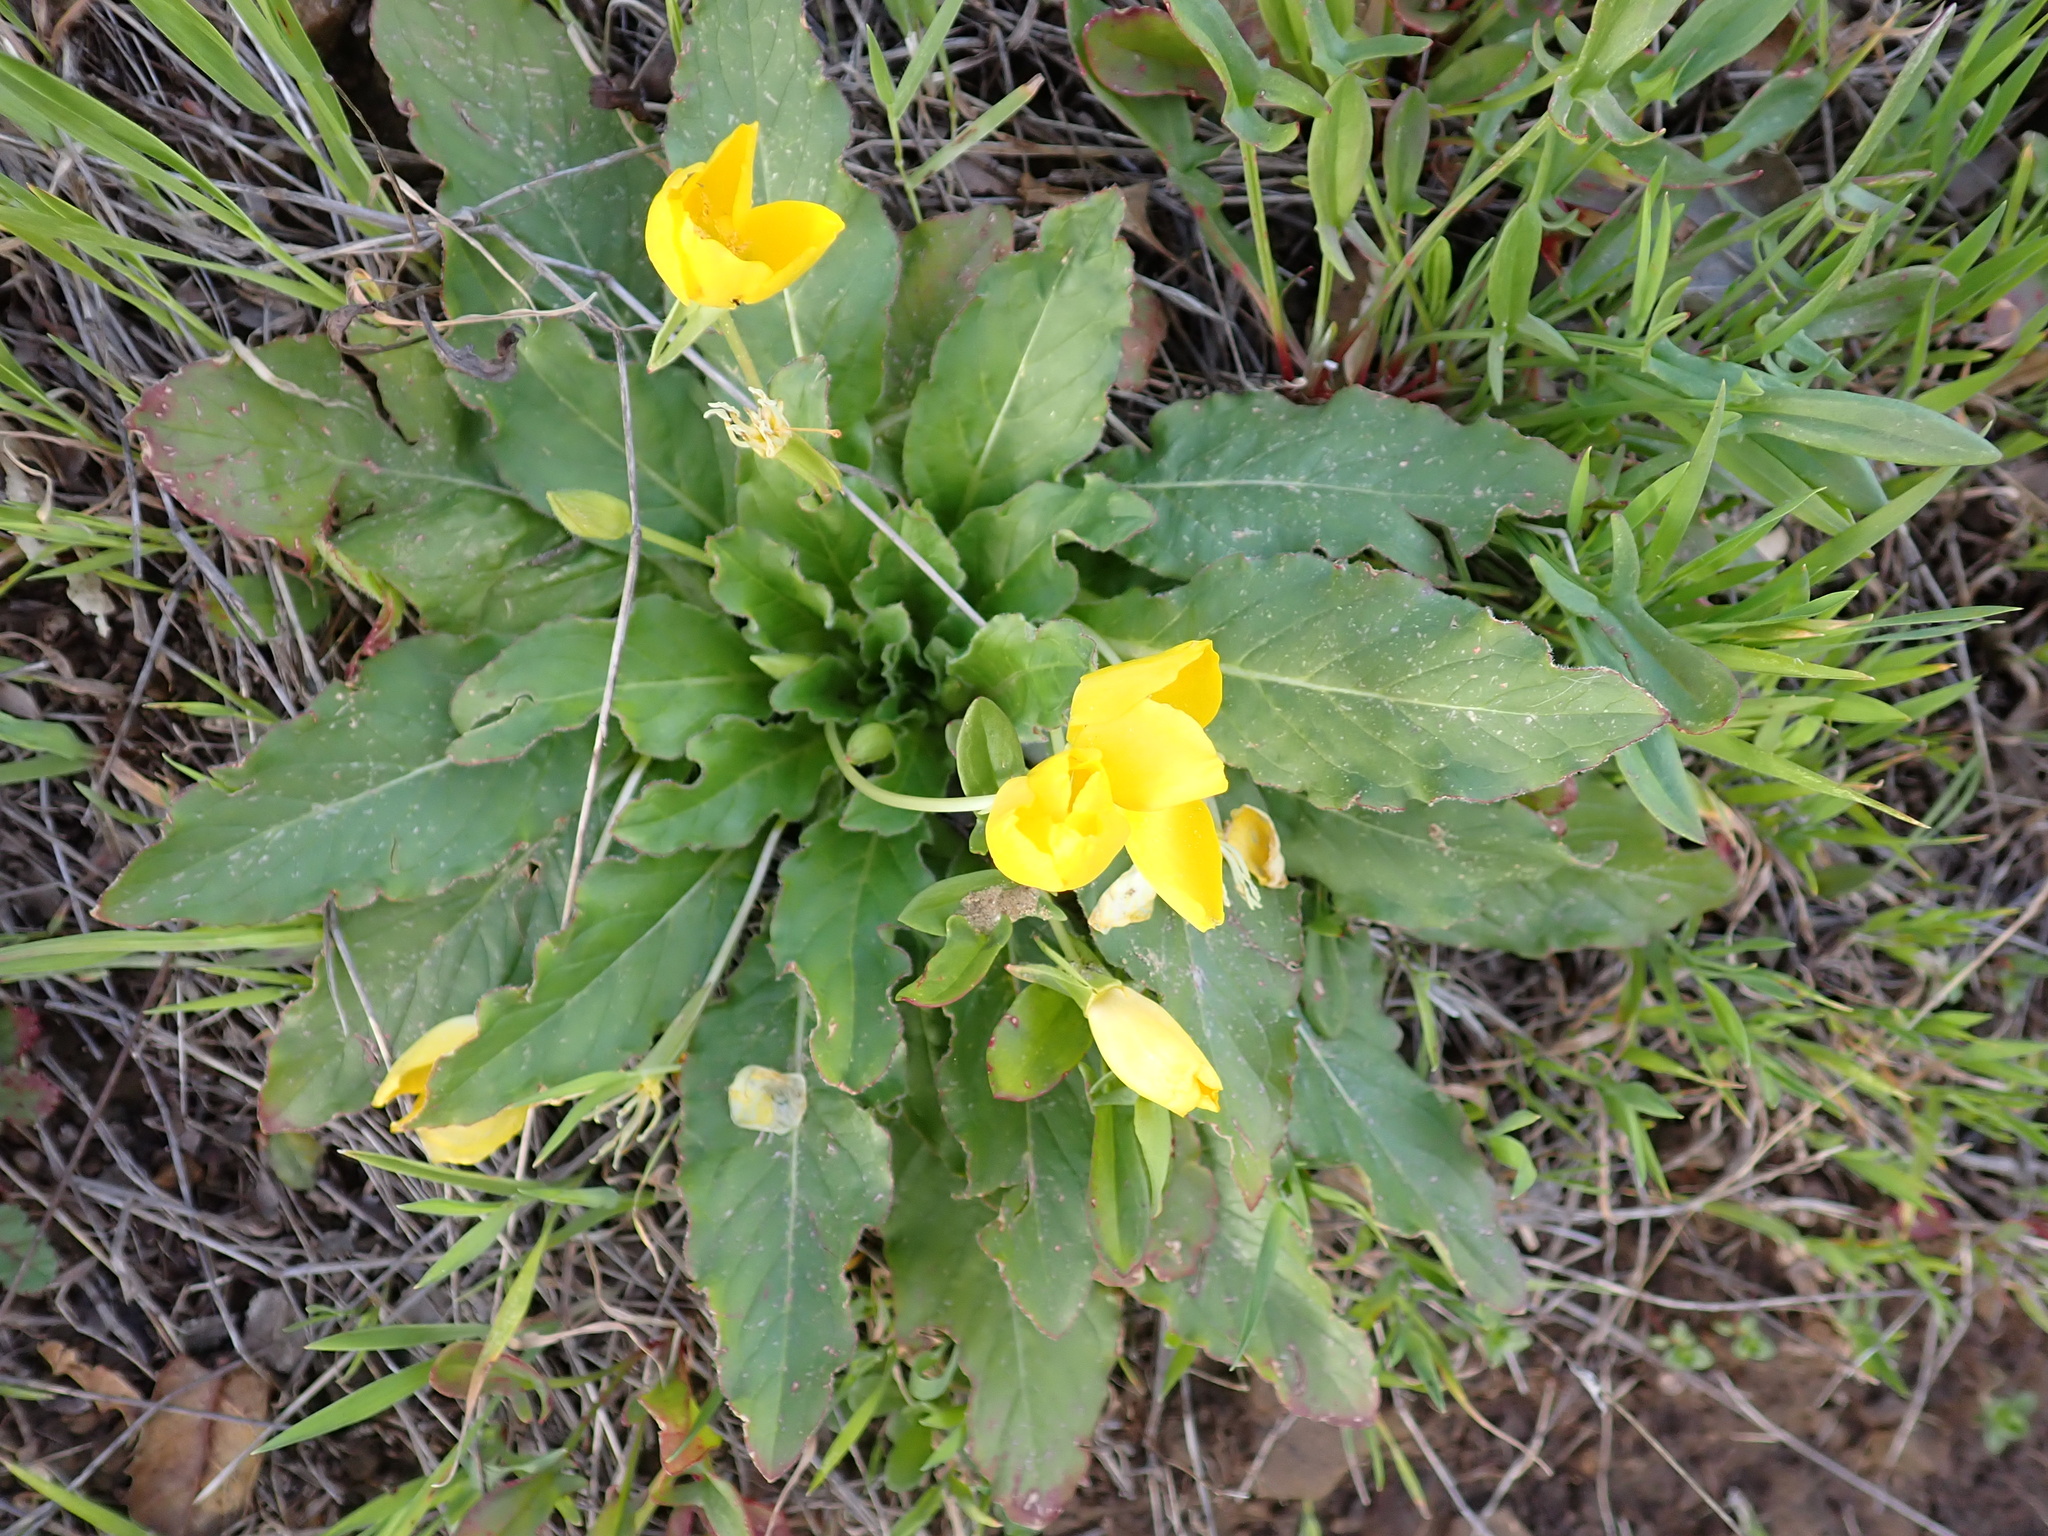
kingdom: Plantae
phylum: Tracheophyta
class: Magnoliopsida
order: Myrtales
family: Onagraceae
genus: Taraxia
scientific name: Taraxia ovata
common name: Goldeneggs
